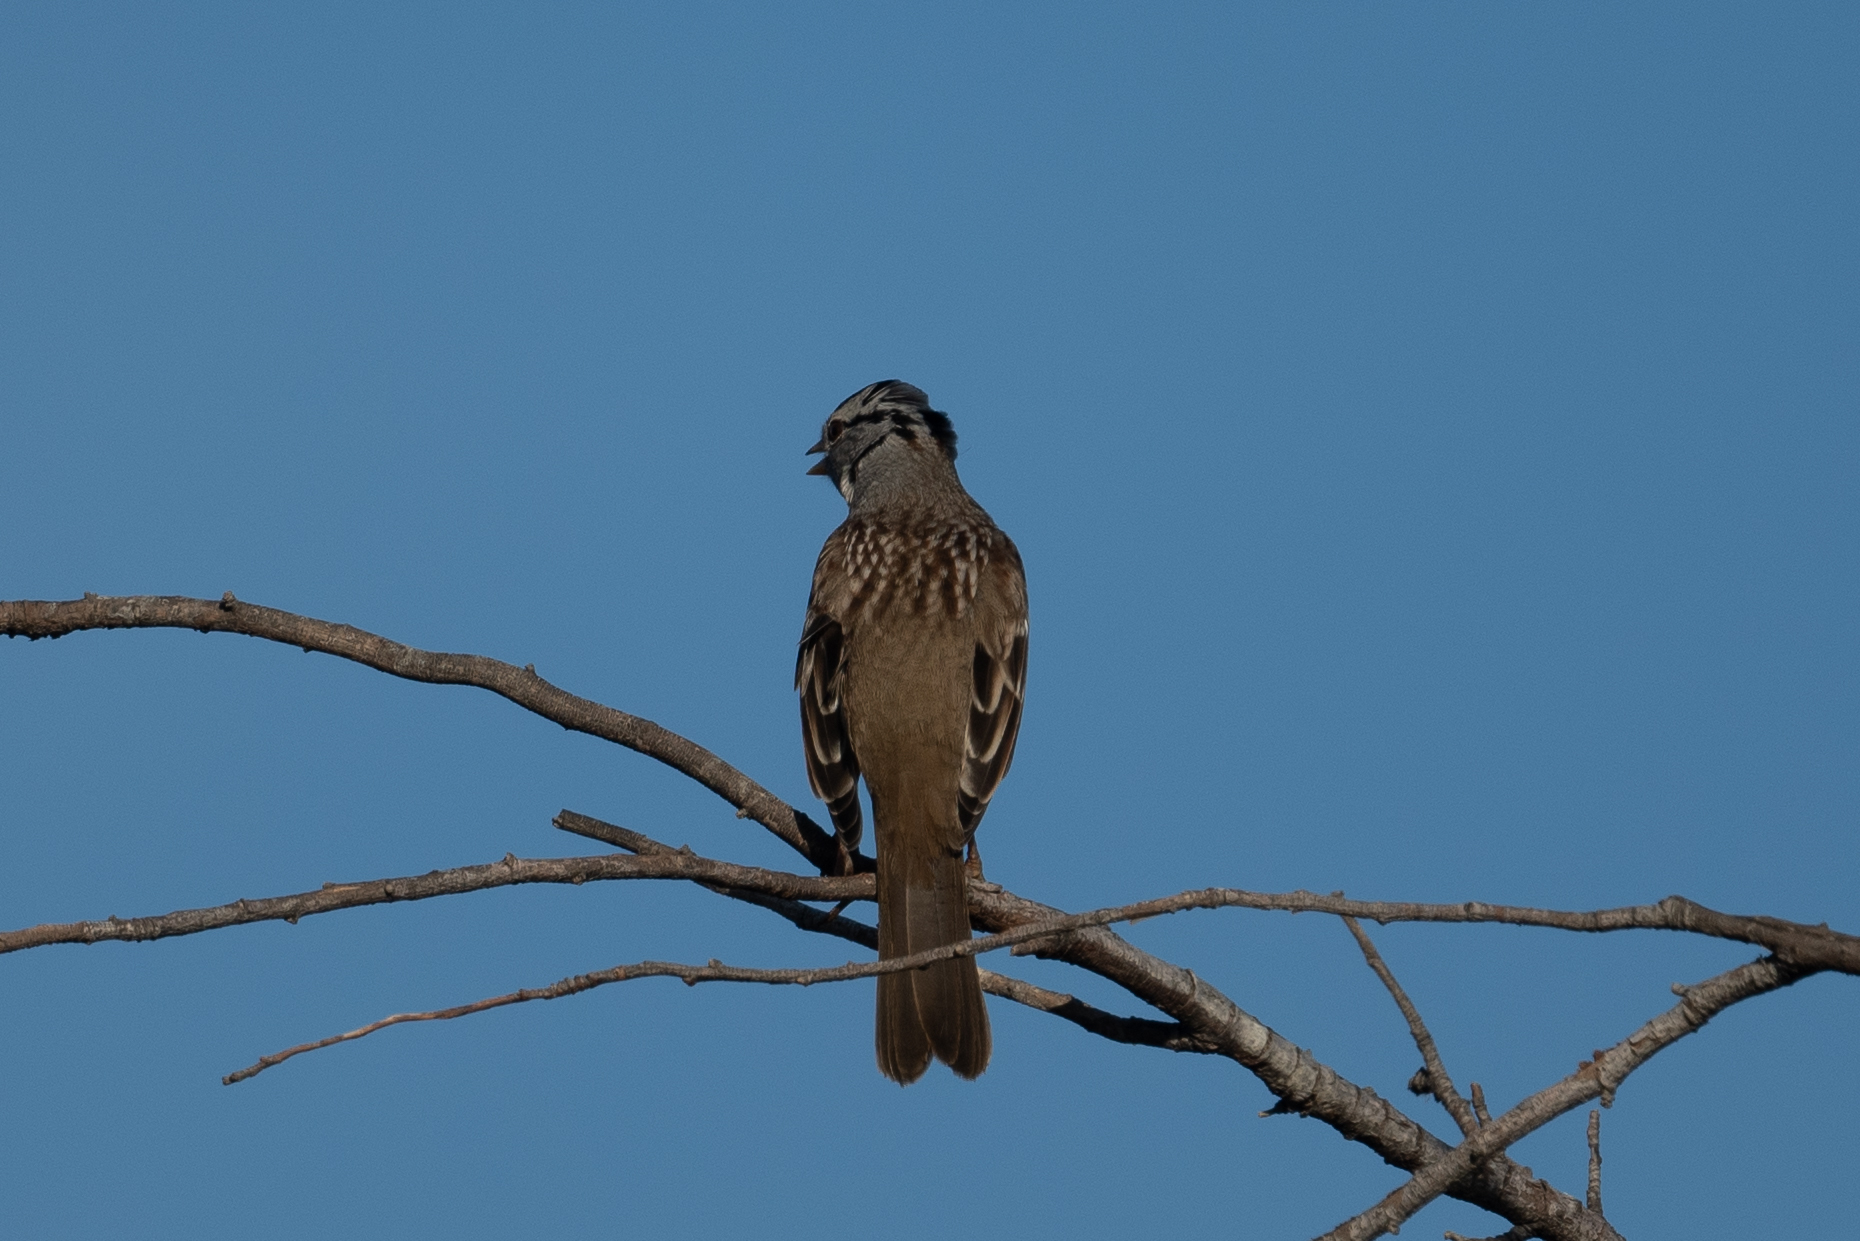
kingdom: Animalia
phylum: Chordata
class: Aves
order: Passeriformes
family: Passerellidae
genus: Zonotrichia
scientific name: Zonotrichia leucophrys
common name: White-crowned sparrow
